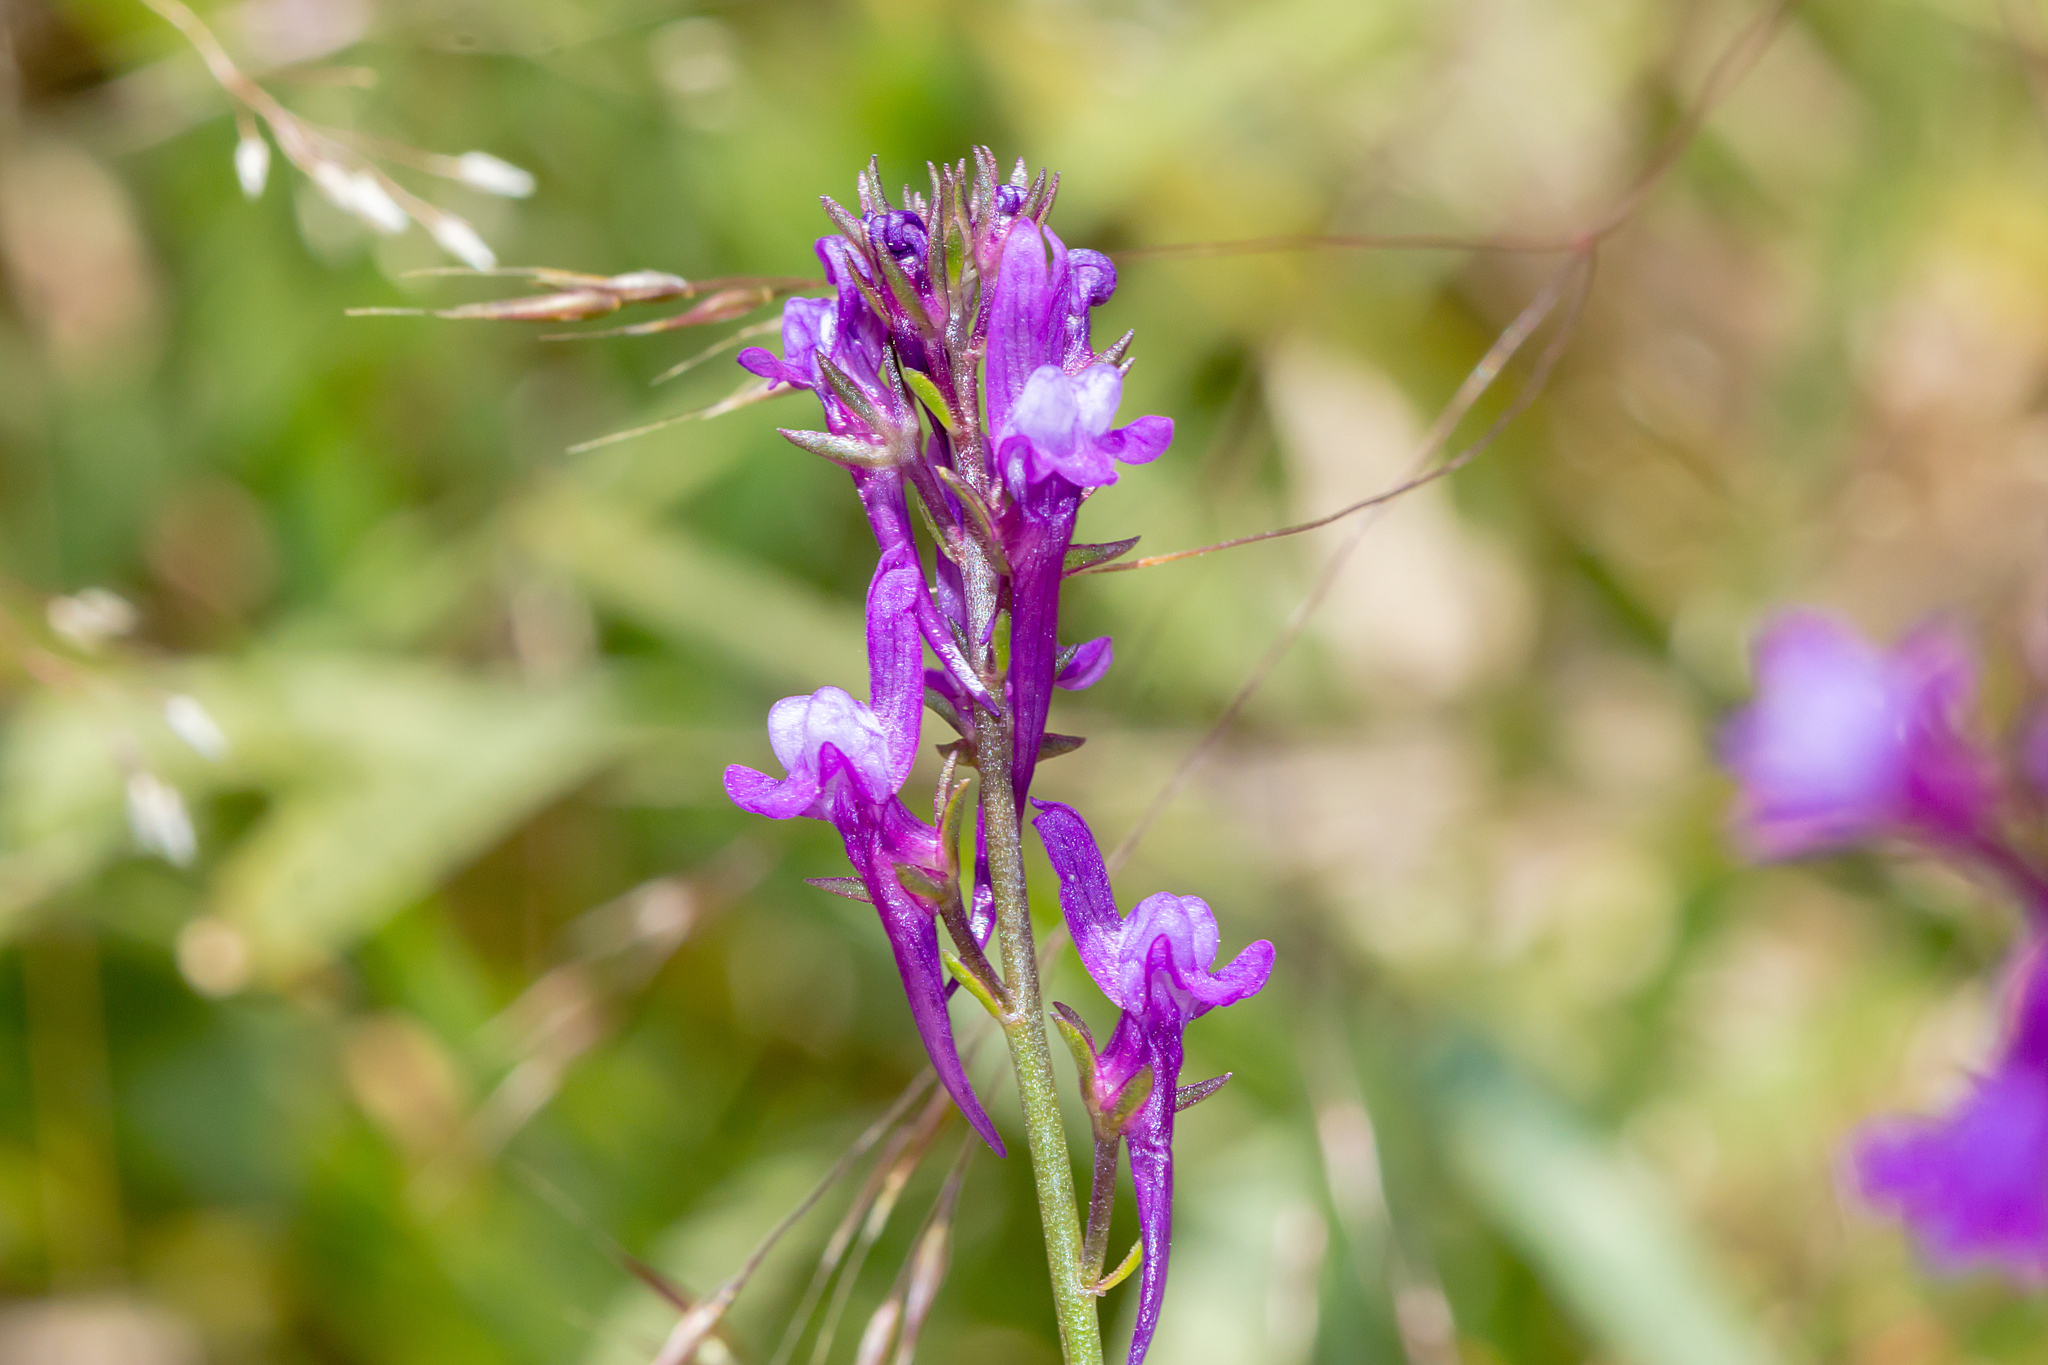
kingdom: Plantae
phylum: Tracheophyta
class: Magnoliopsida
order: Lamiales
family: Plantaginaceae
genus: Linaria
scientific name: Linaria pelisseriana
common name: Jersey toadflax
